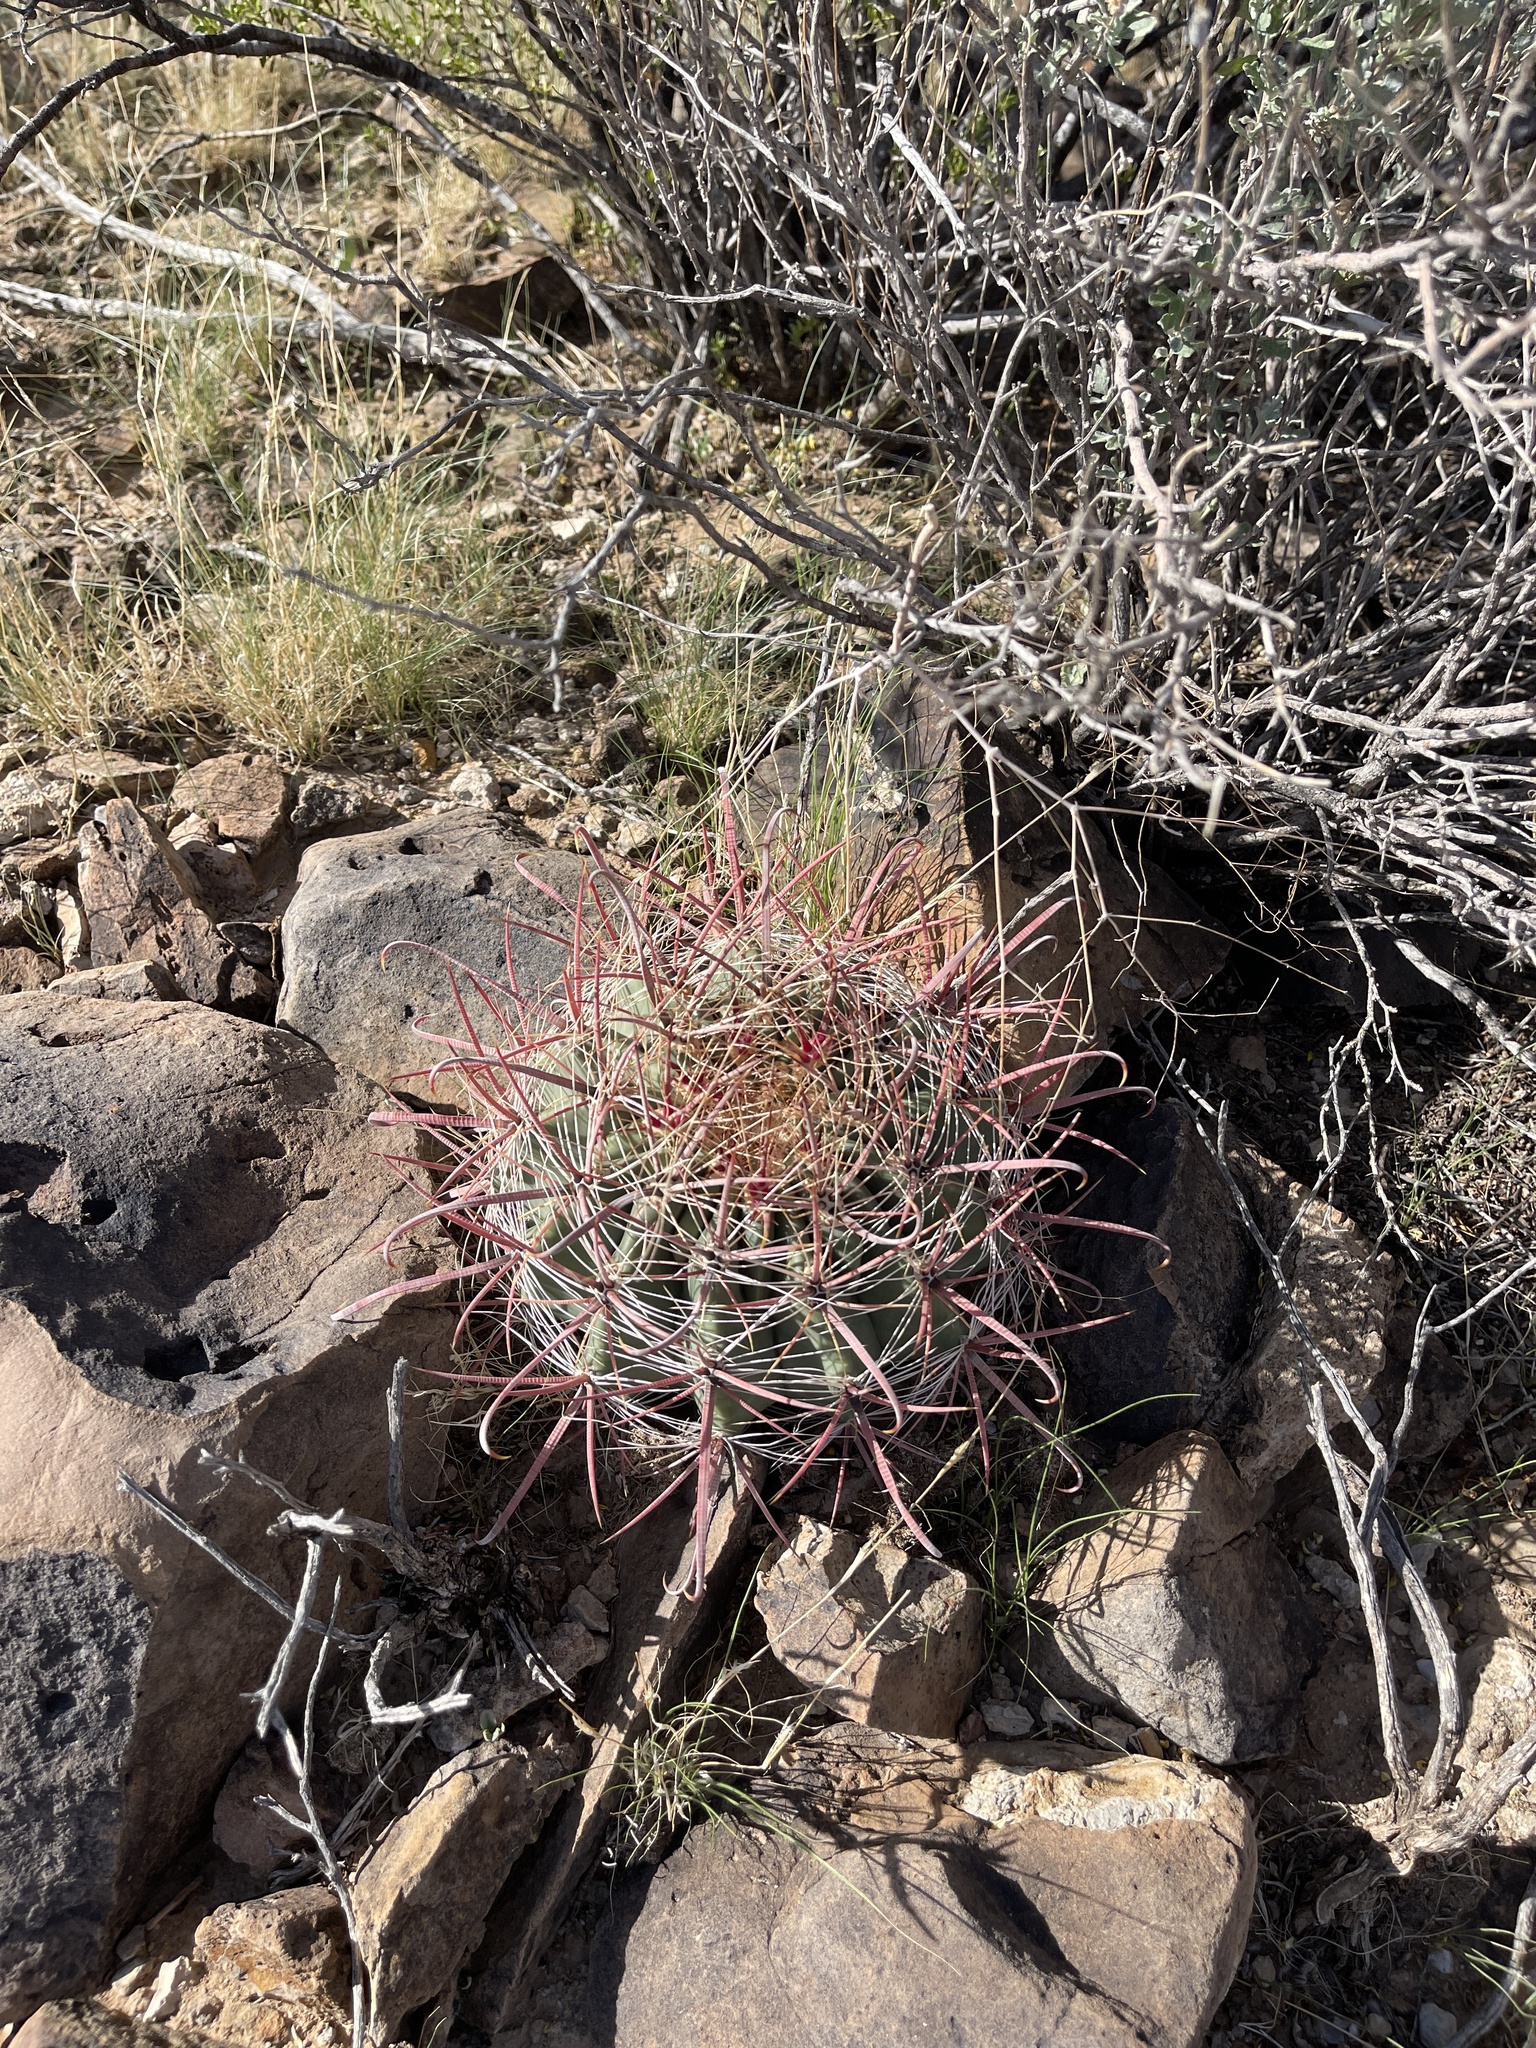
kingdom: Plantae
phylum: Tracheophyta
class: Magnoliopsida
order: Caryophyllales
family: Cactaceae
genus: Ferocactus
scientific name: Ferocactus wislizeni
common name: Candy barrel cactus
